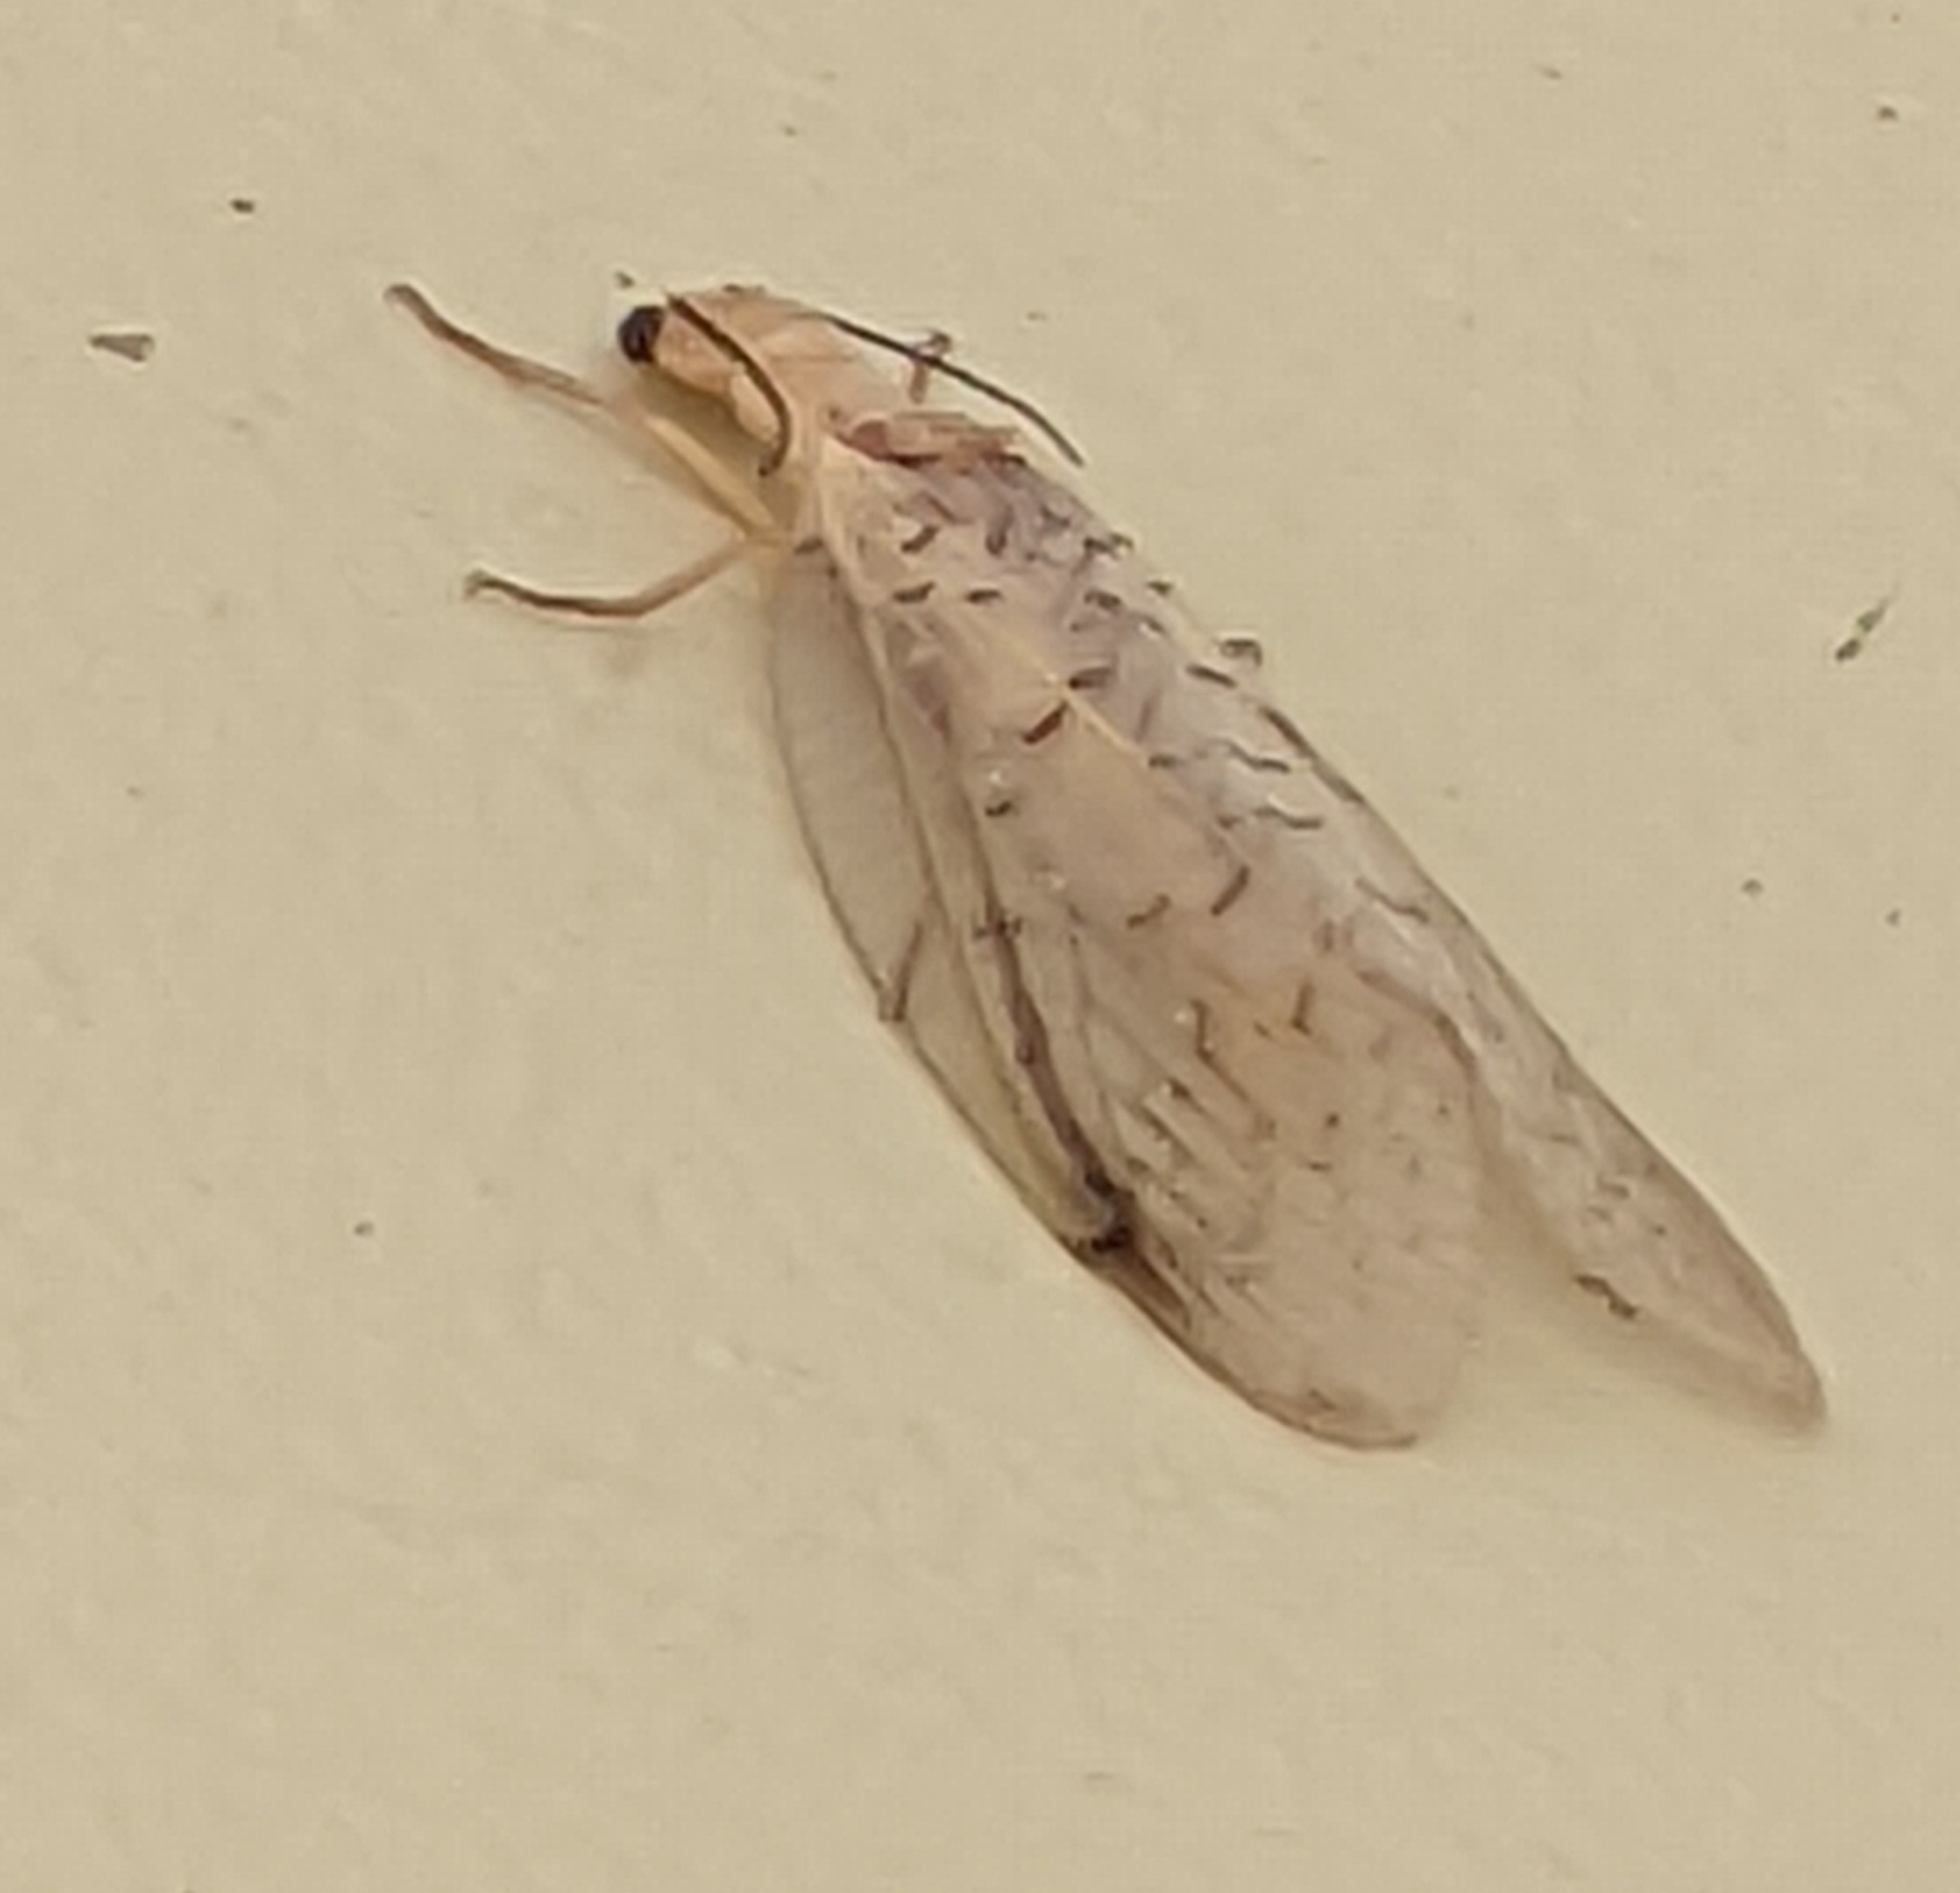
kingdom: Animalia
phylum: Arthropoda
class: Insecta
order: Megaloptera
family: Corydalidae
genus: Nevromus
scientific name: Nevromus austroindicus
